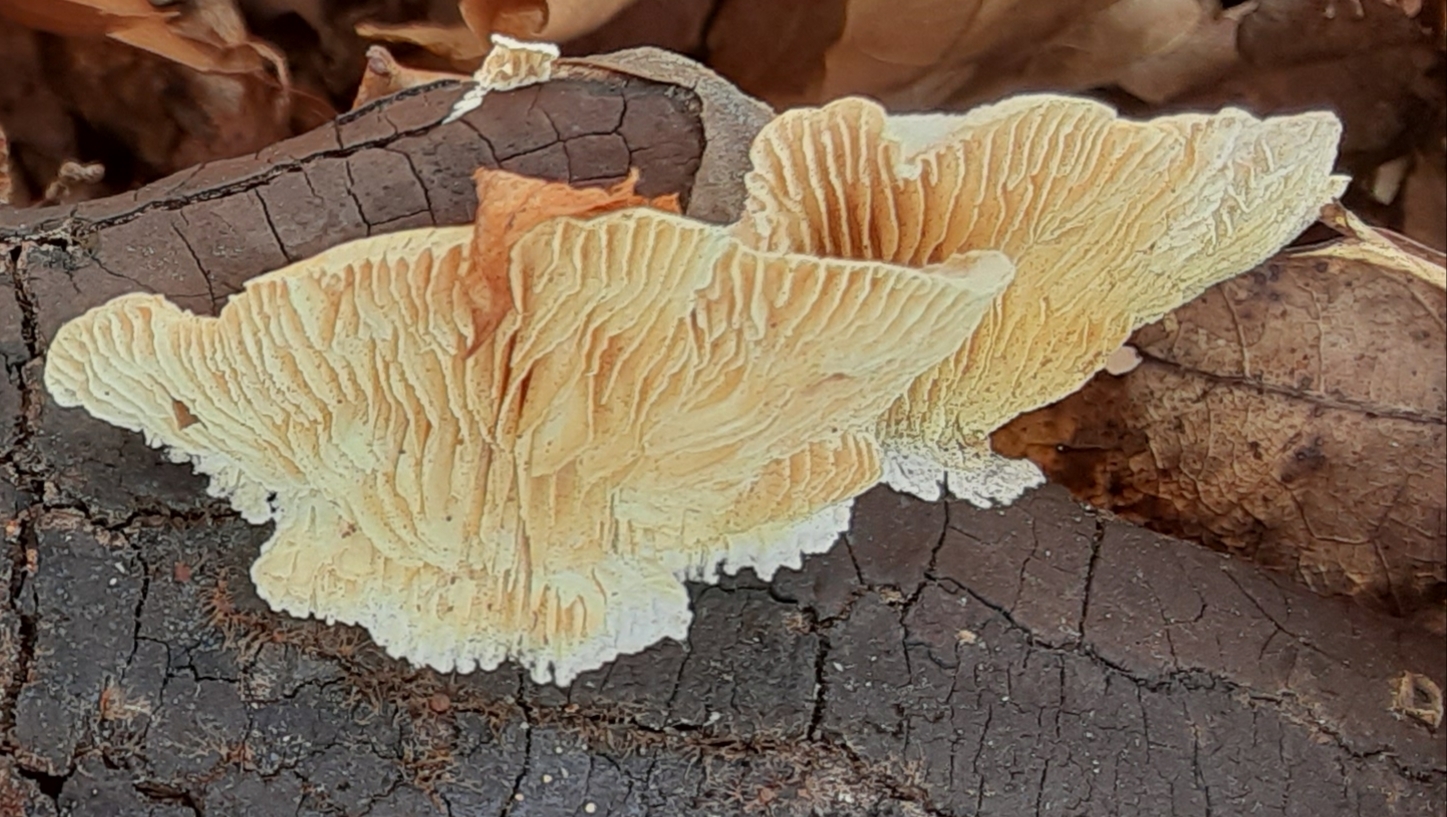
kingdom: Fungi
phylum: Basidiomycota
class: Agaricomycetes
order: Polyporales
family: Polyporaceae
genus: Lenzites
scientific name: Lenzites betulinus
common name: Birch mazegill
